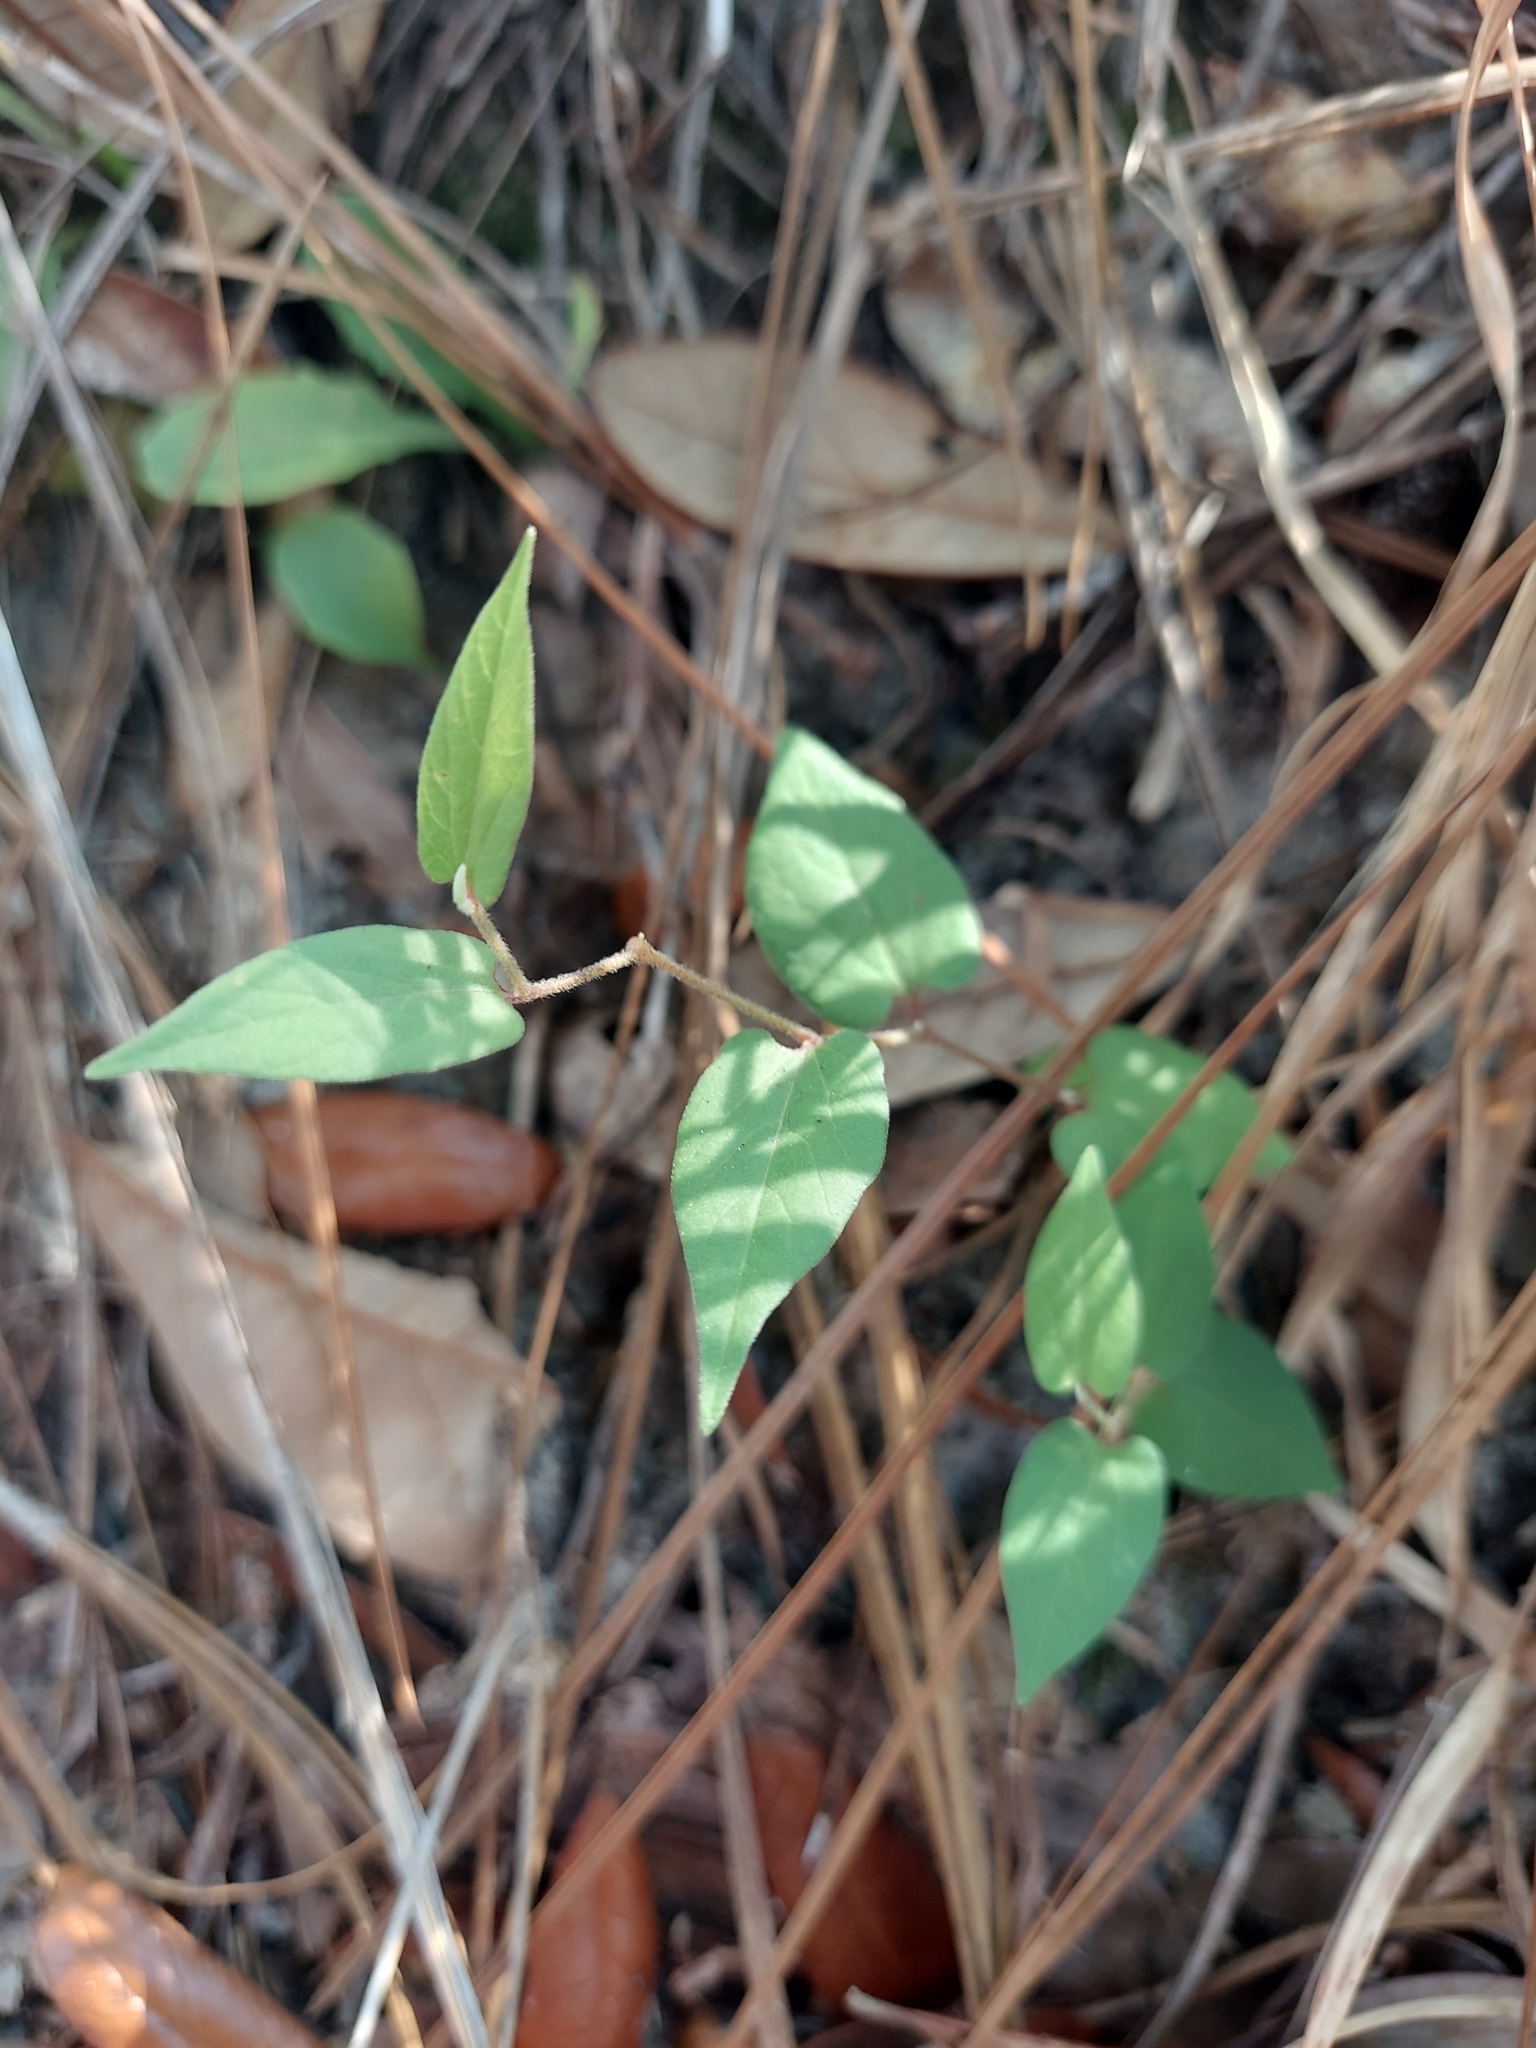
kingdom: Plantae
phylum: Tracheophyta
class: Magnoliopsida
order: Piperales
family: Aristolochiaceae
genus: Endodeca
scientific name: Endodeca serpentaria
